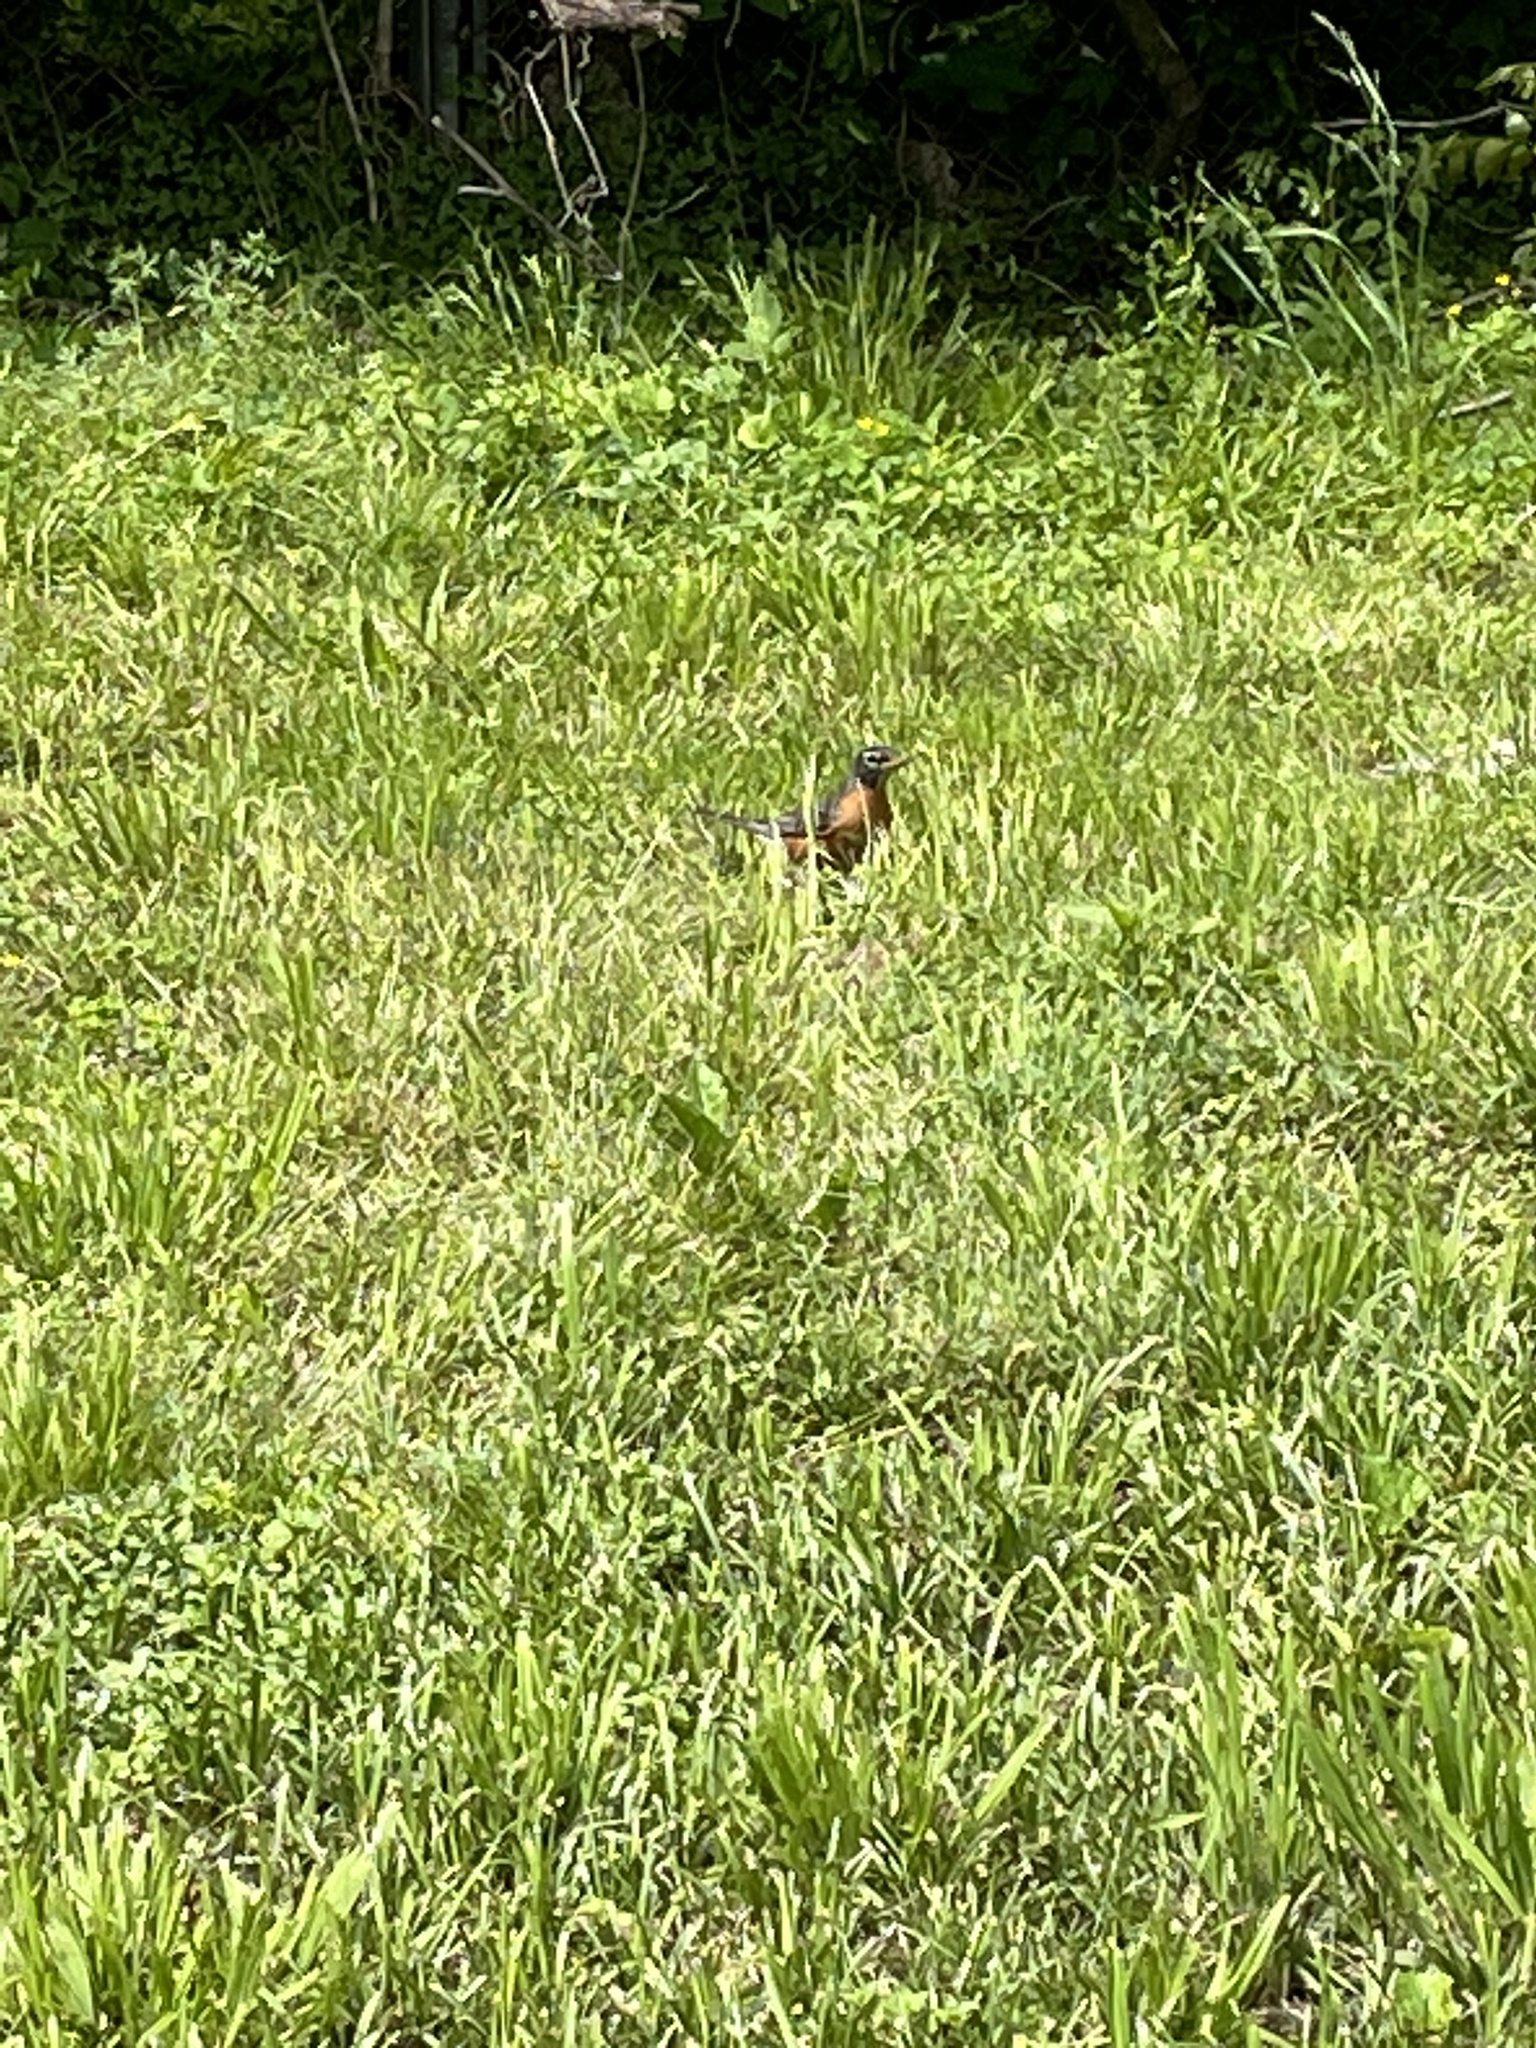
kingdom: Animalia
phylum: Chordata
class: Aves
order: Passeriformes
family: Turdidae
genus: Turdus
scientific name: Turdus migratorius
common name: American robin
